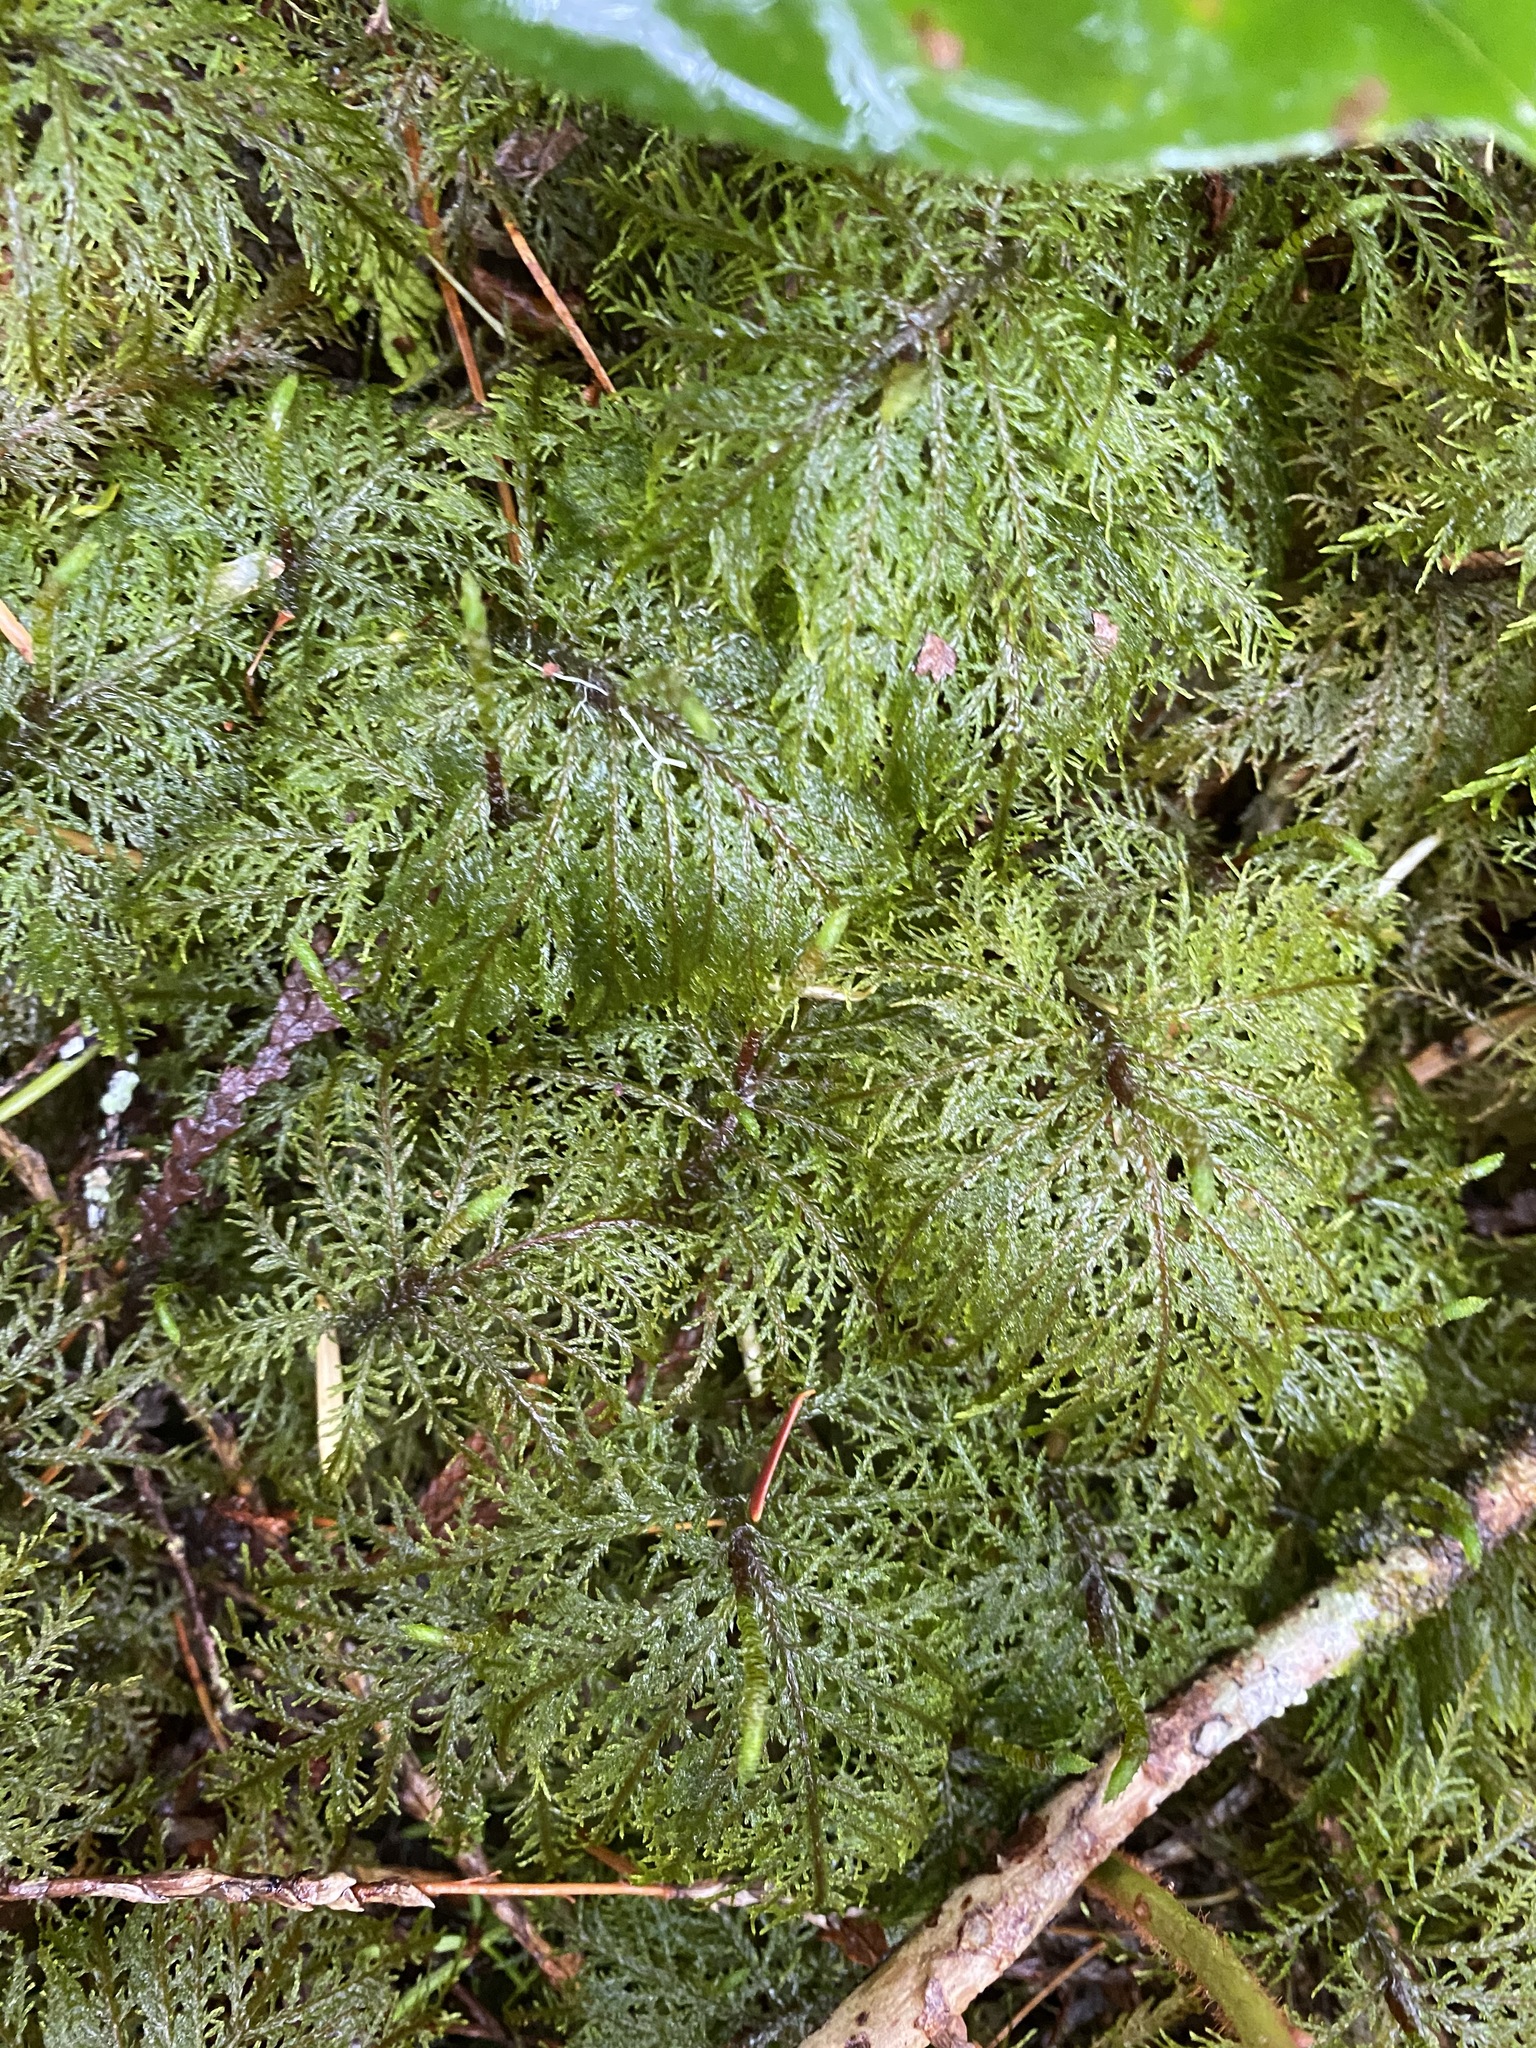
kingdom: Plantae
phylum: Bryophyta
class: Bryopsida
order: Hypnales
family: Hylocomiaceae
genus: Hylocomium
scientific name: Hylocomium splendens
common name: Stairstep moss
